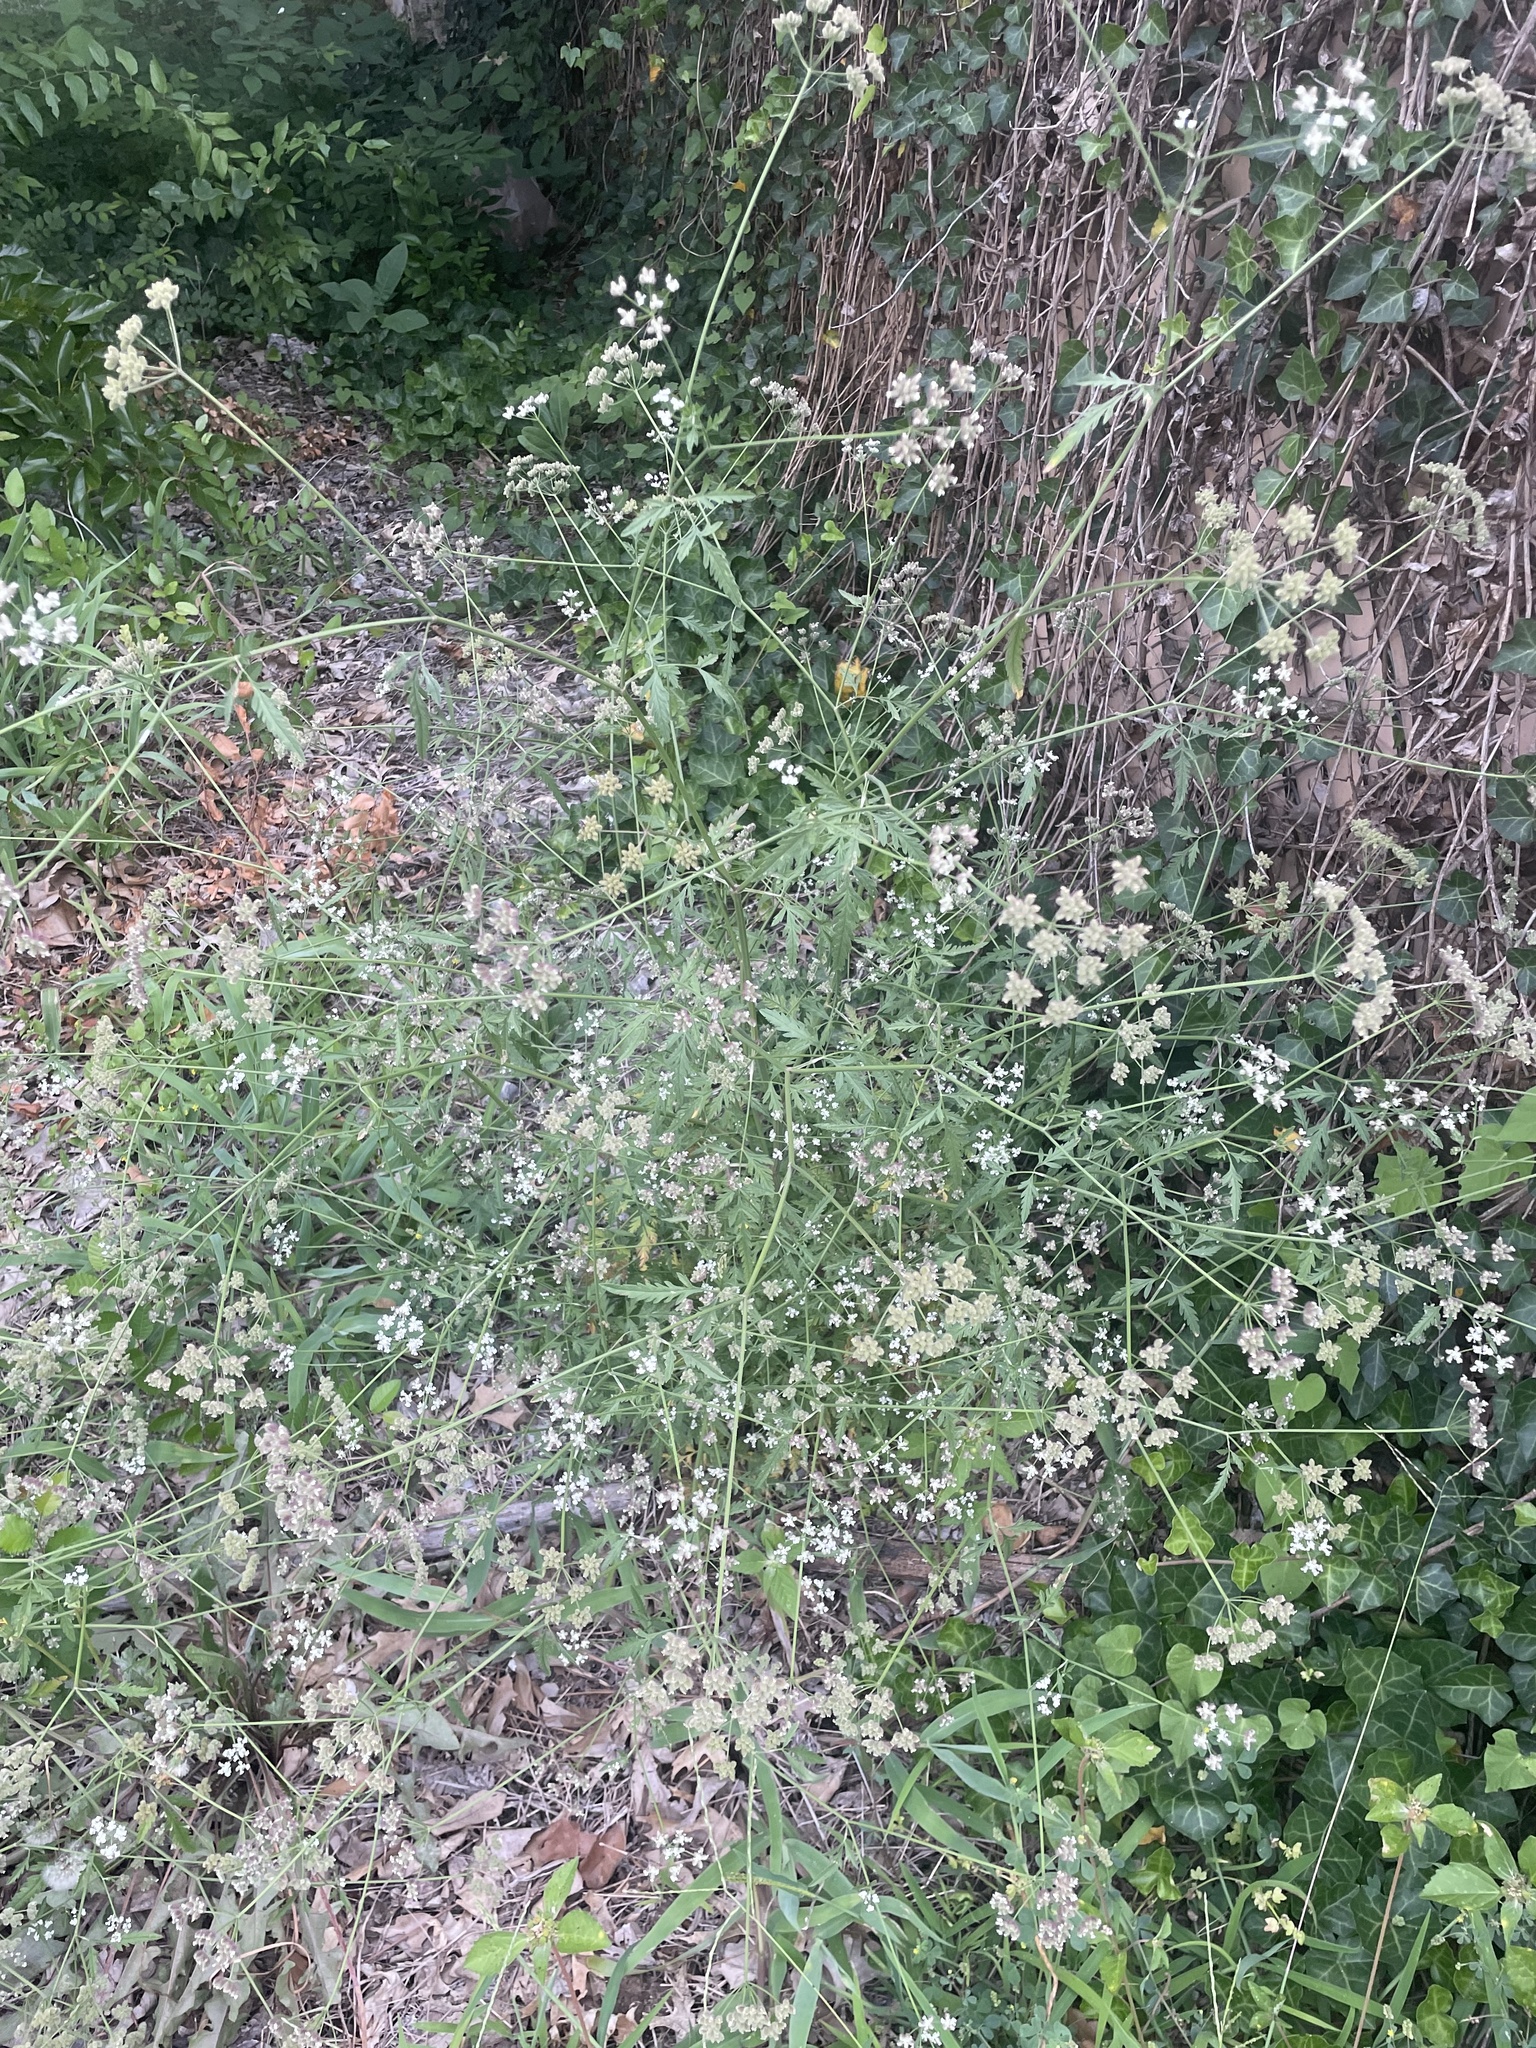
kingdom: Plantae
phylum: Tracheophyta
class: Magnoliopsida
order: Apiales
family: Apiaceae
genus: Torilis
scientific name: Torilis arvensis
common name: Spreading hedge-parsley
